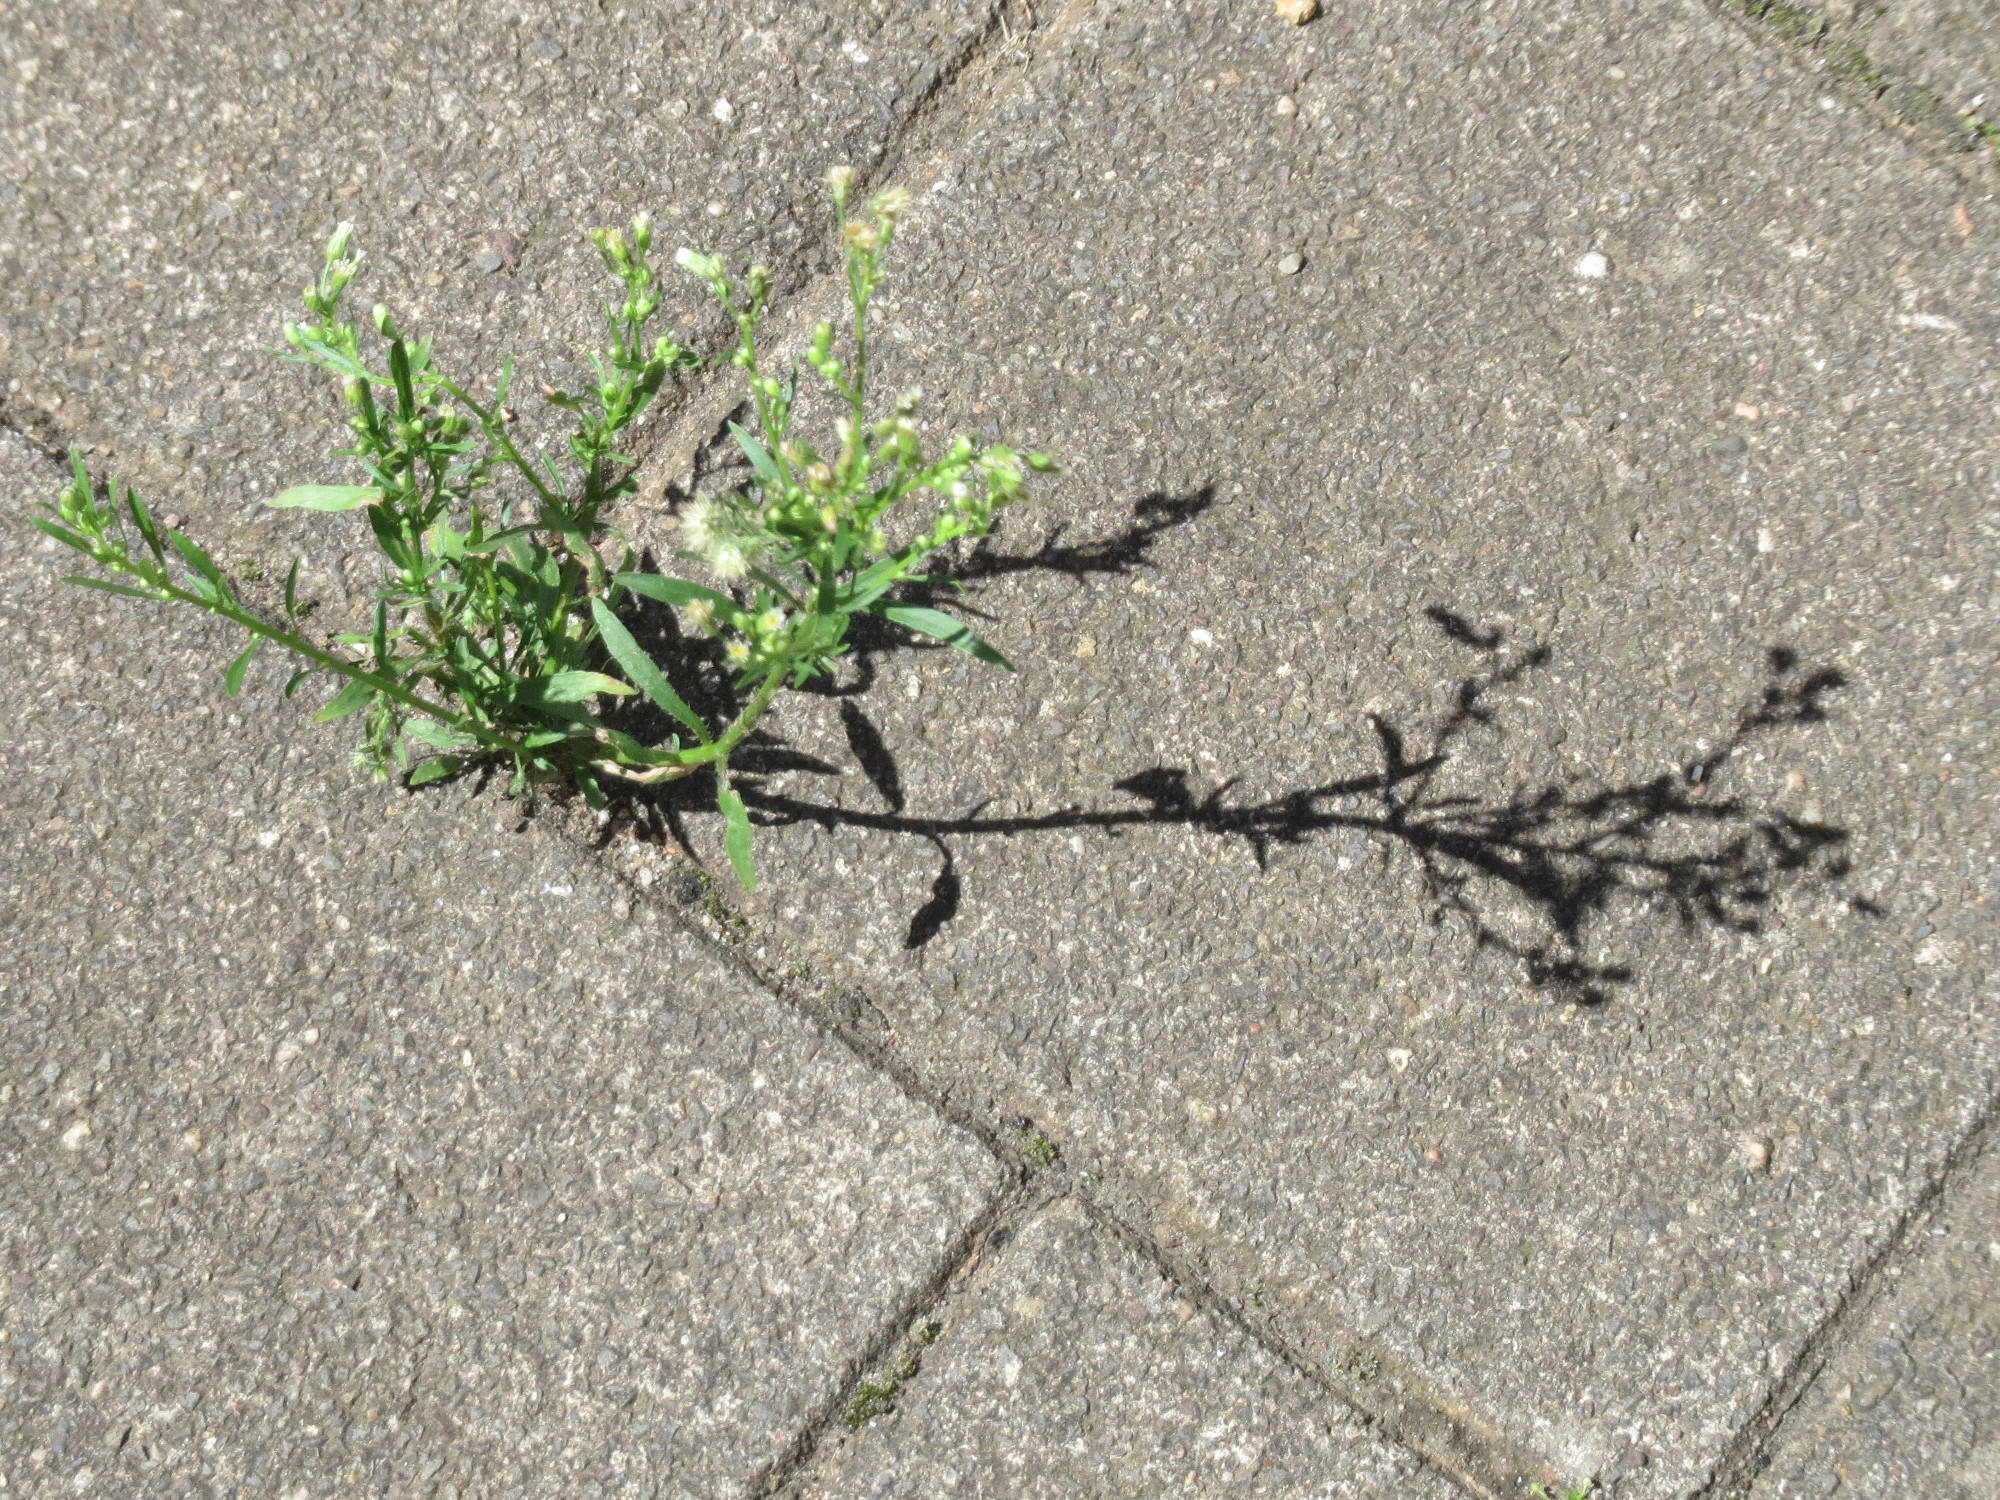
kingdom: Plantae
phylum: Tracheophyta
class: Magnoliopsida
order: Asterales
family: Asteraceae
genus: Erigeron
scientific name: Erigeron canadensis
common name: Canadian fleabane
